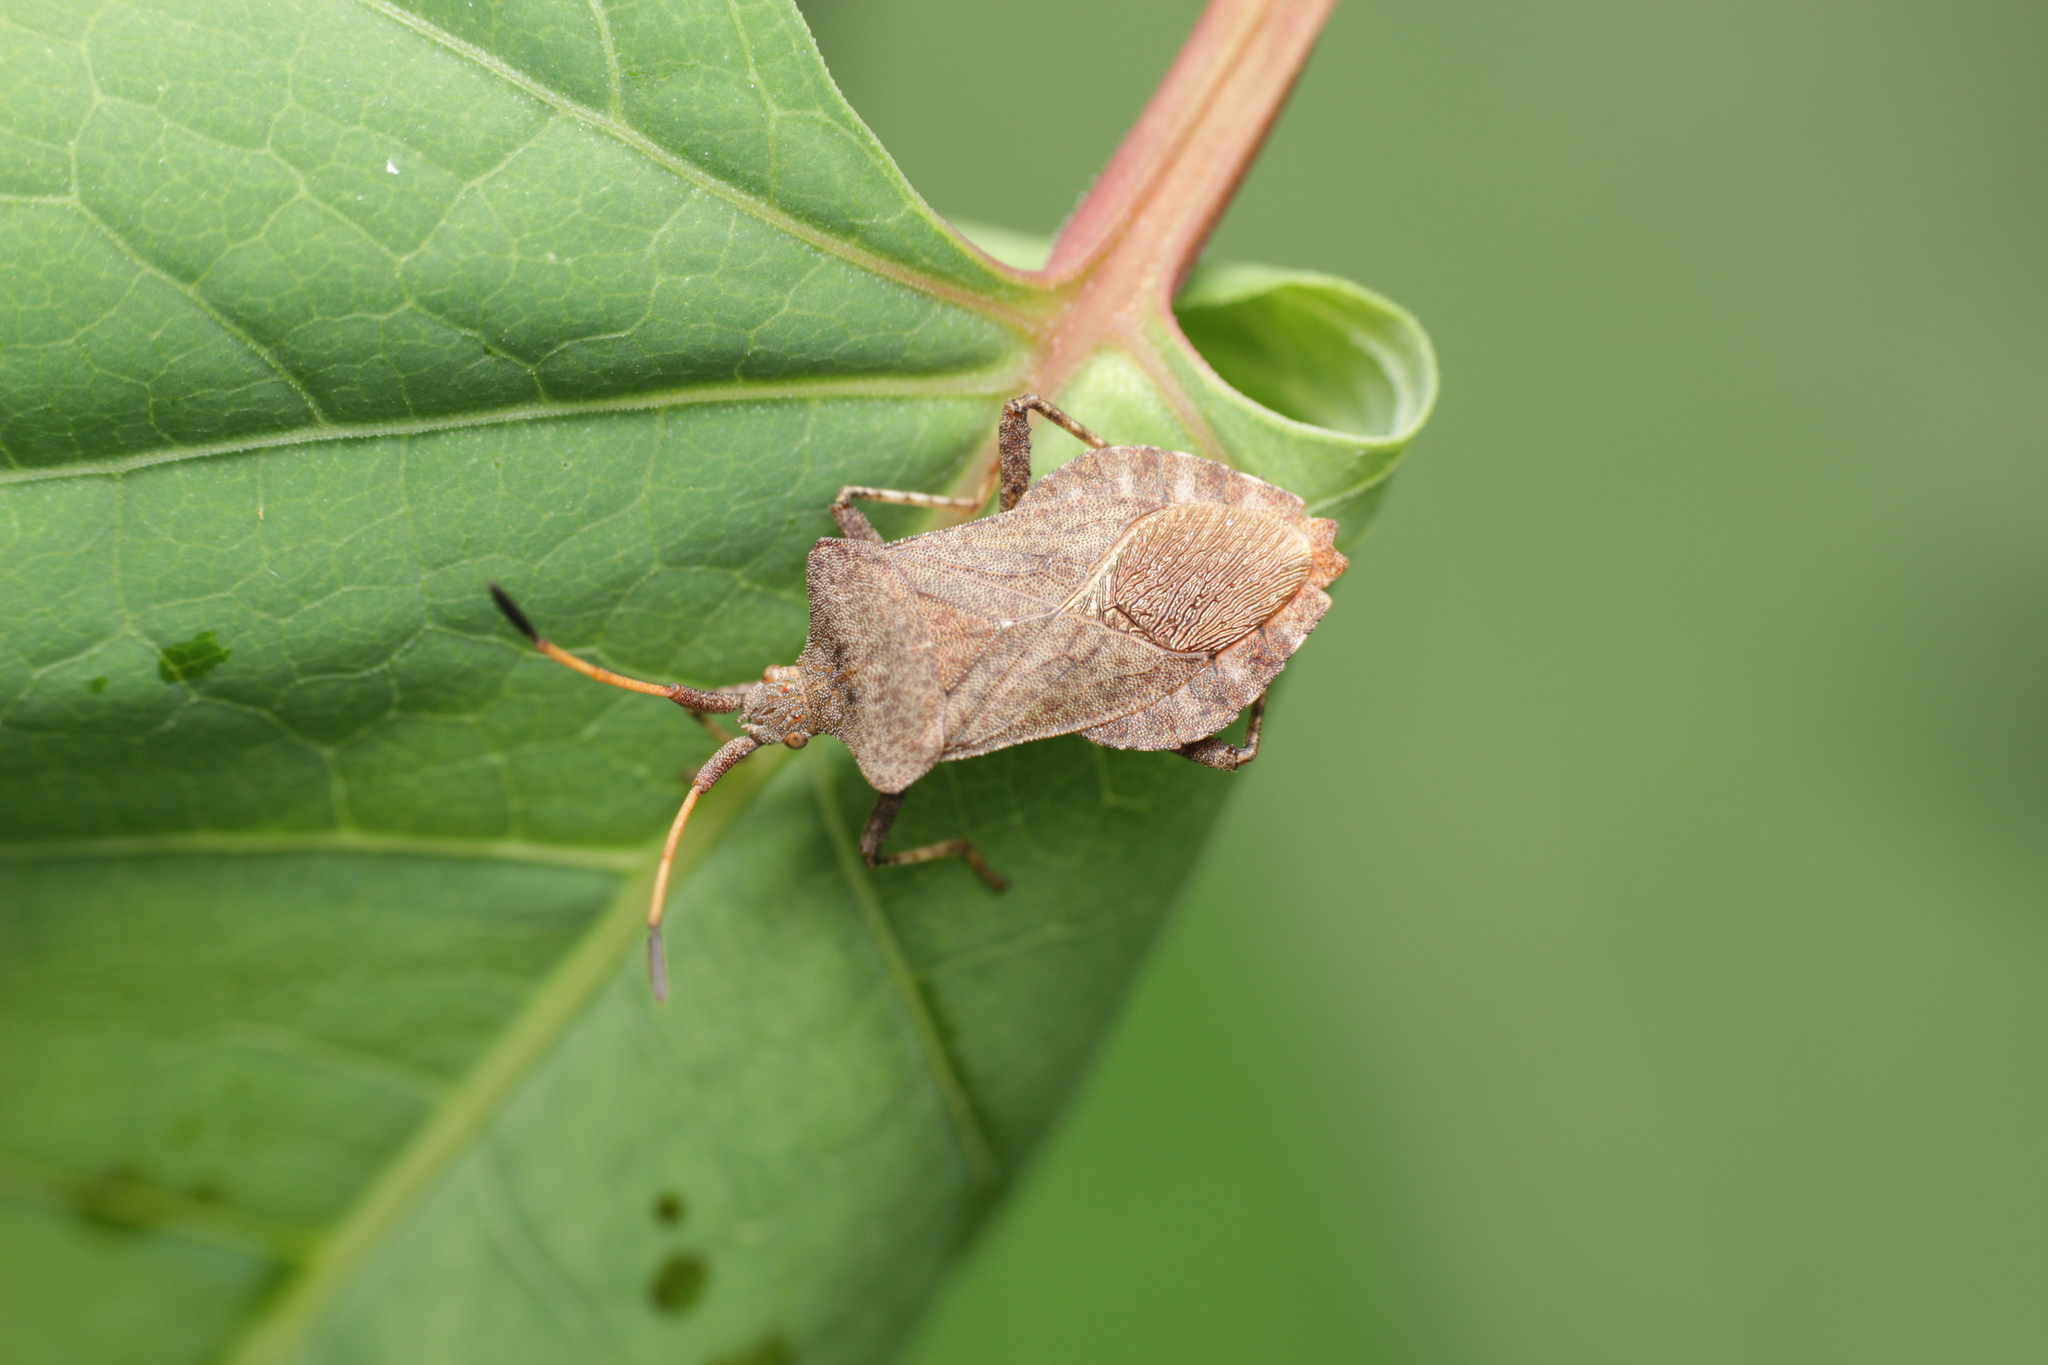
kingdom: Animalia
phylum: Arthropoda
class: Insecta
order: Hemiptera
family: Coreidae
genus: Coreus
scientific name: Coreus marginatus
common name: Dock bug
